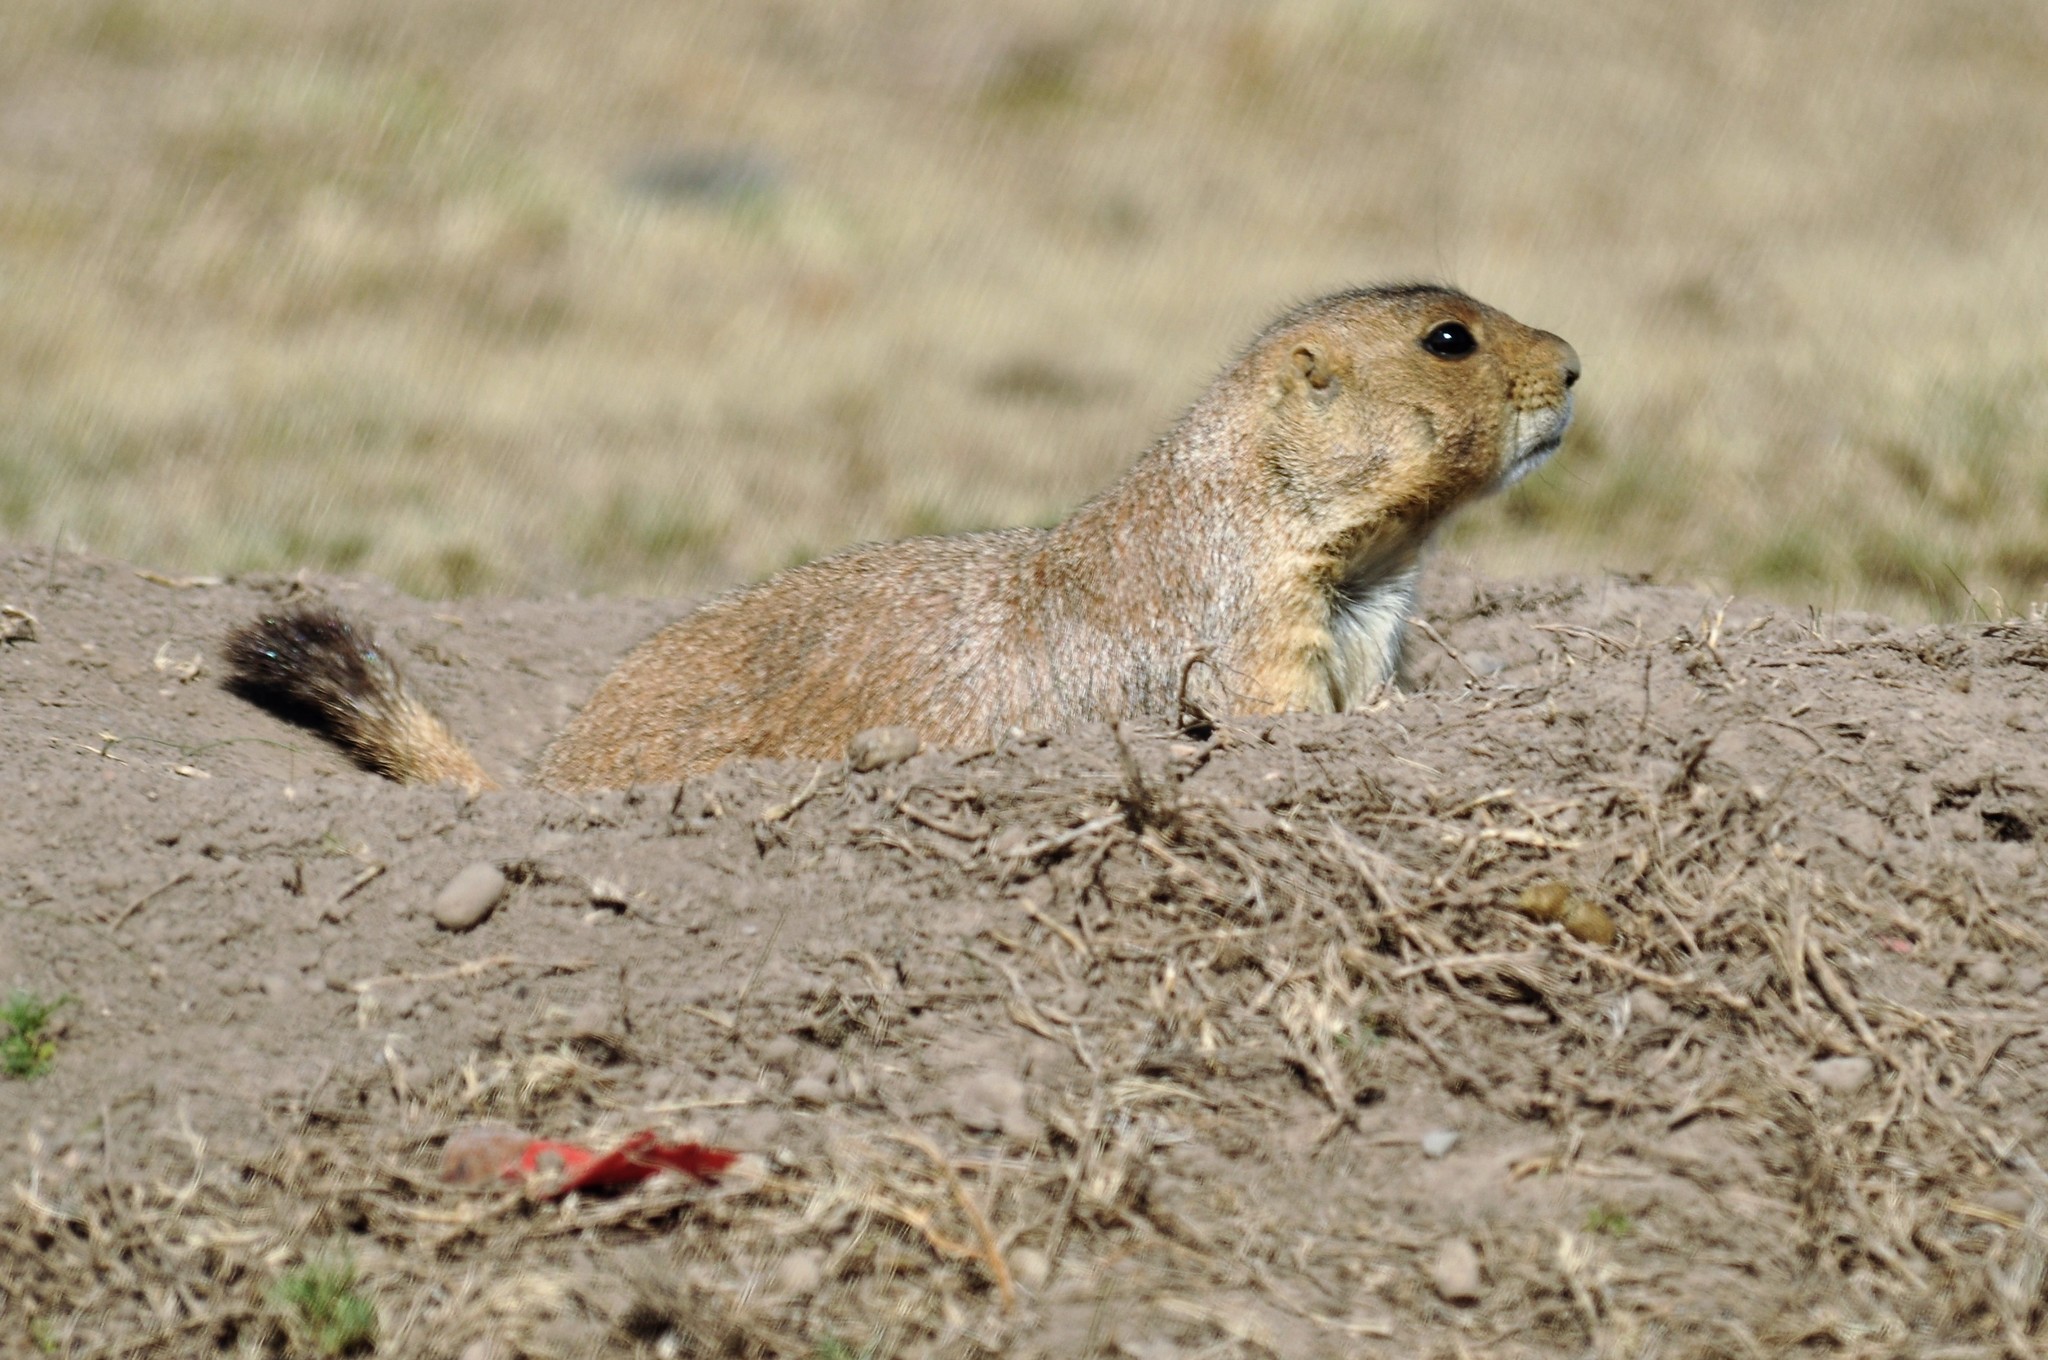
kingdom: Animalia
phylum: Chordata
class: Mammalia
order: Rodentia
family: Sciuridae
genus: Cynomys
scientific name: Cynomys mexicanus
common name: Mexican prairie dog
